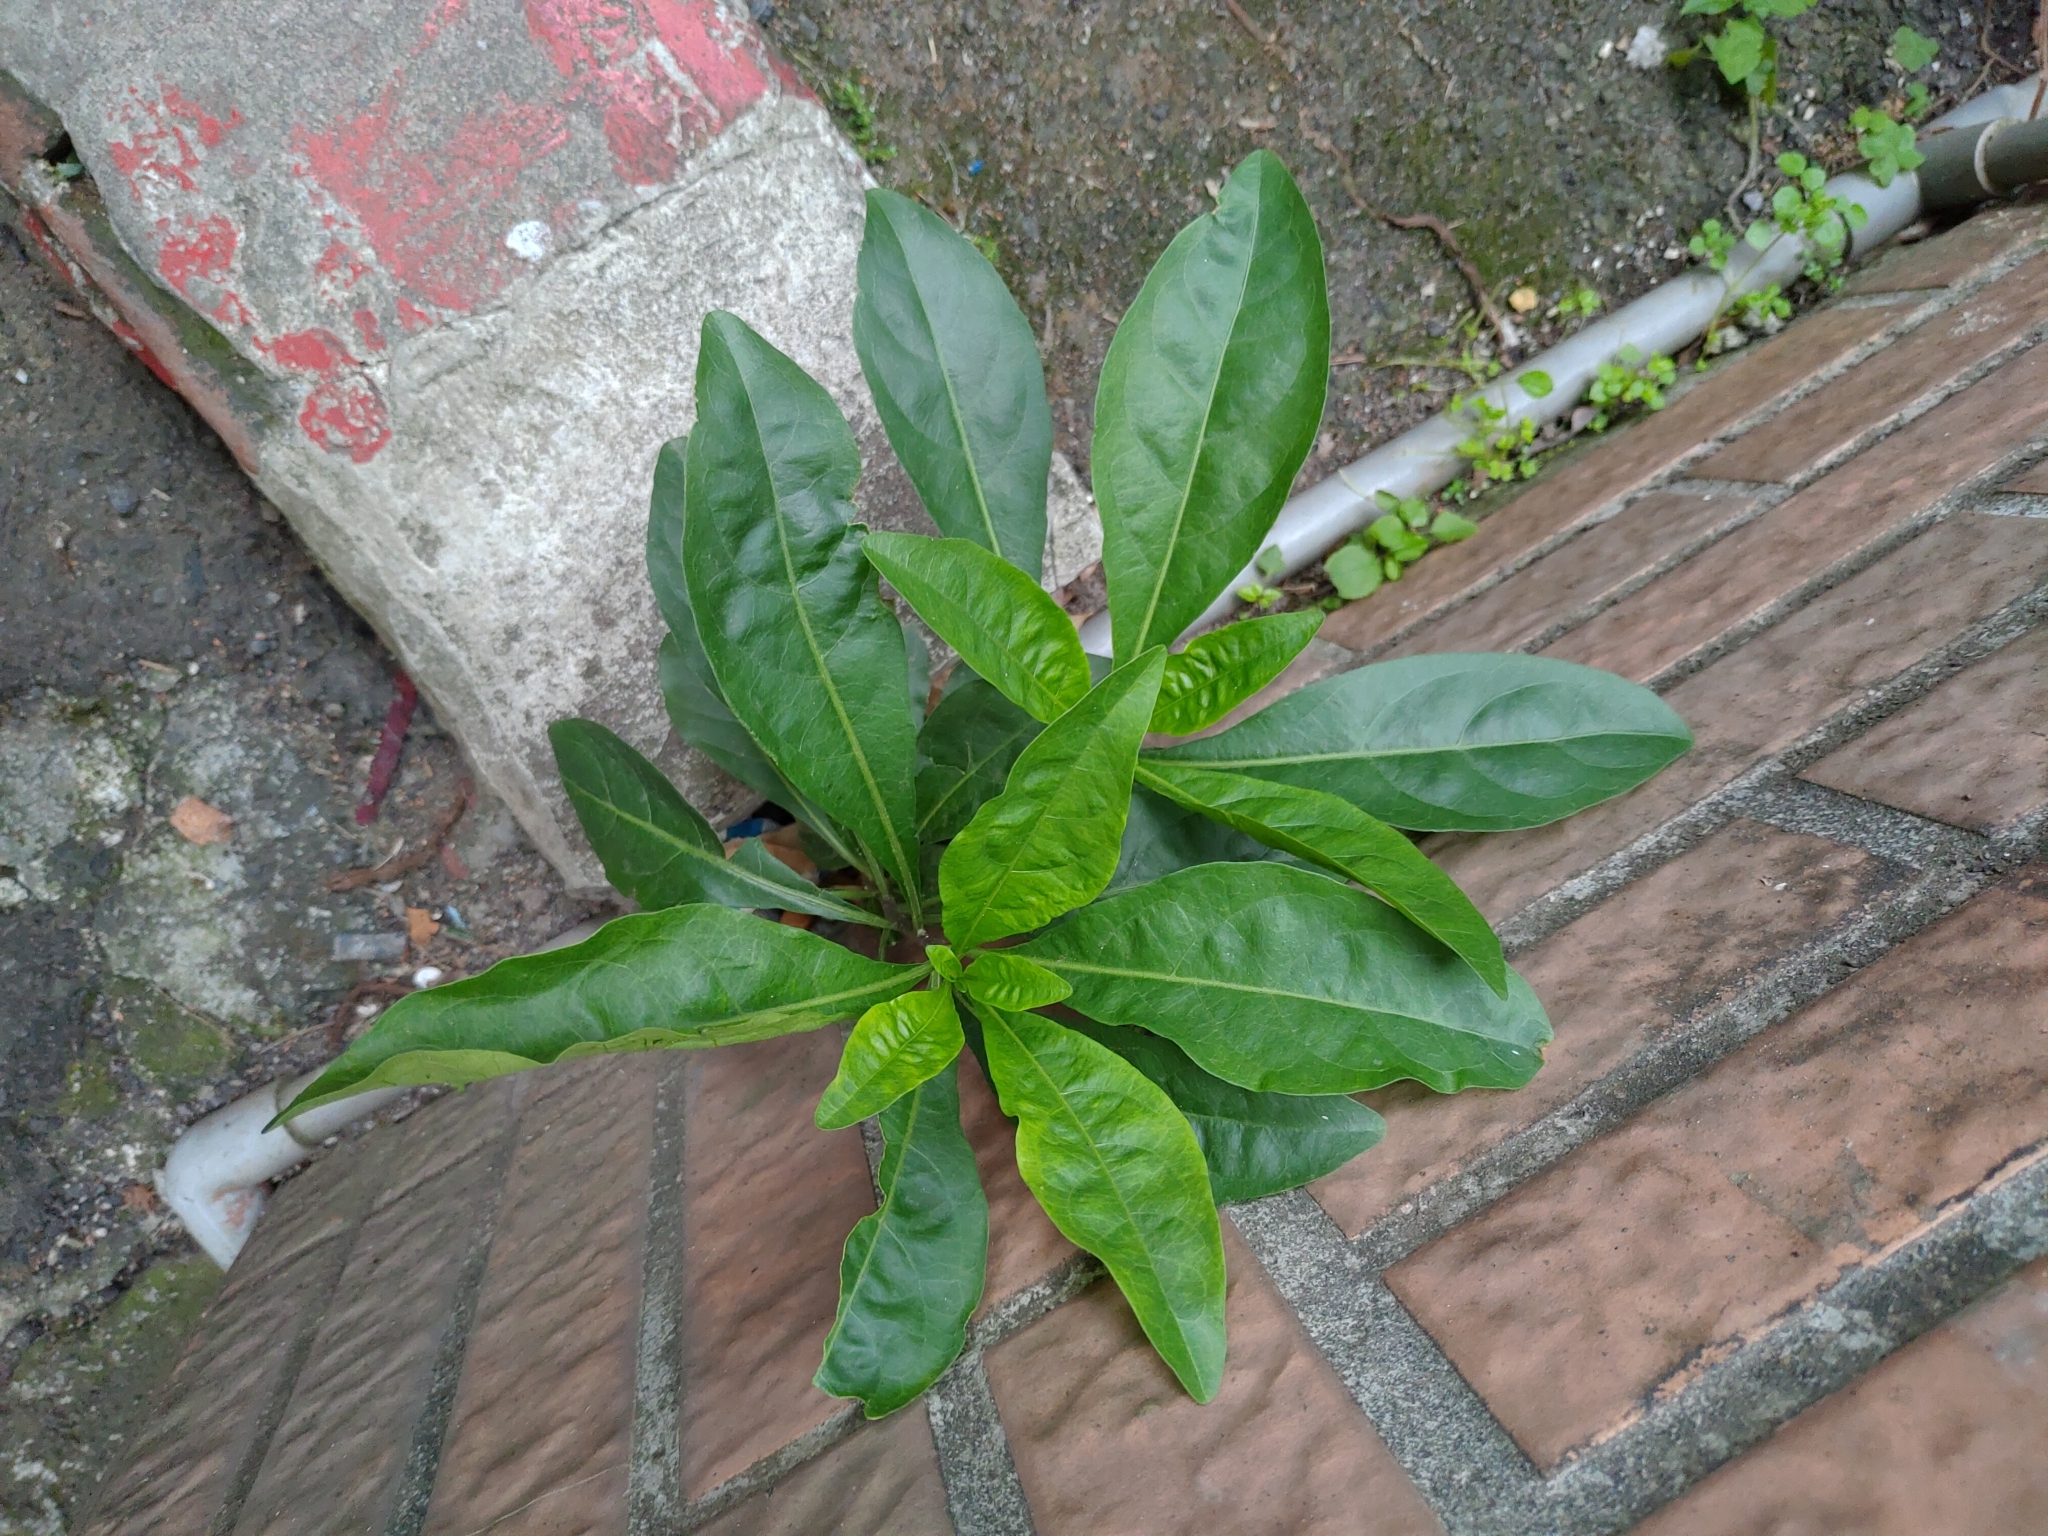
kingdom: Plantae
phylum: Tracheophyta
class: Magnoliopsida
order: Solanales
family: Solanaceae
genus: Solanum
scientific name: Solanum diphyllum
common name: Twoleaf nightshade
